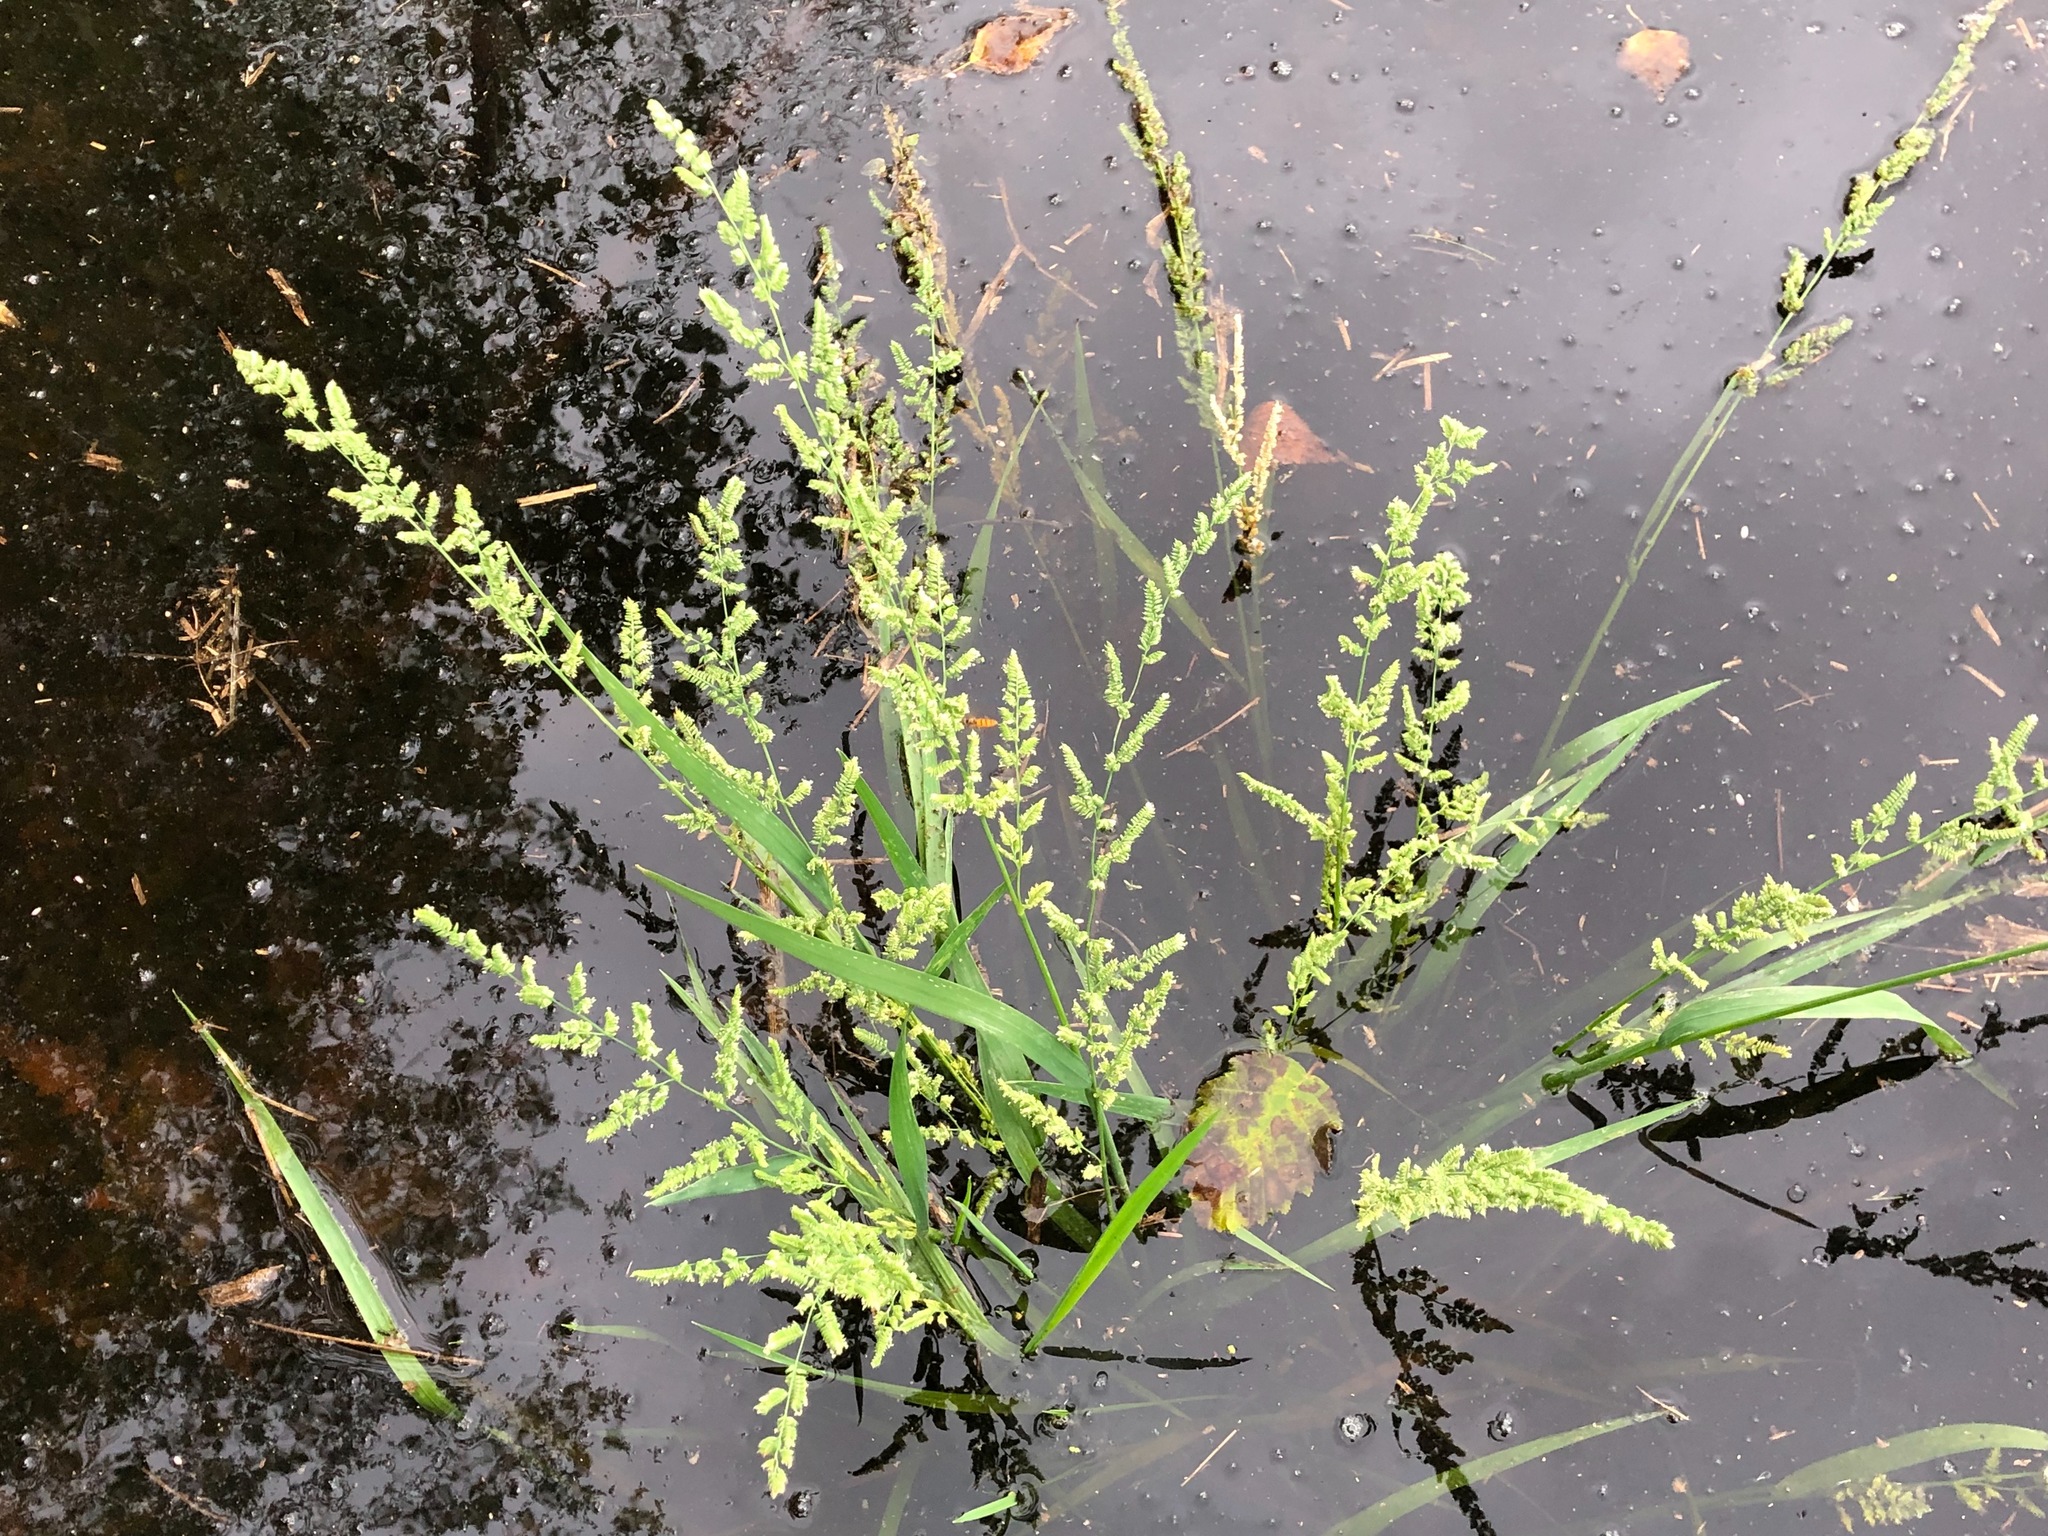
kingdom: Plantae
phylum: Tracheophyta
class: Liliopsida
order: Poales
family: Poaceae
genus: Beckmannia
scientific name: Beckmannia syzigachne
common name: American slough-grass
